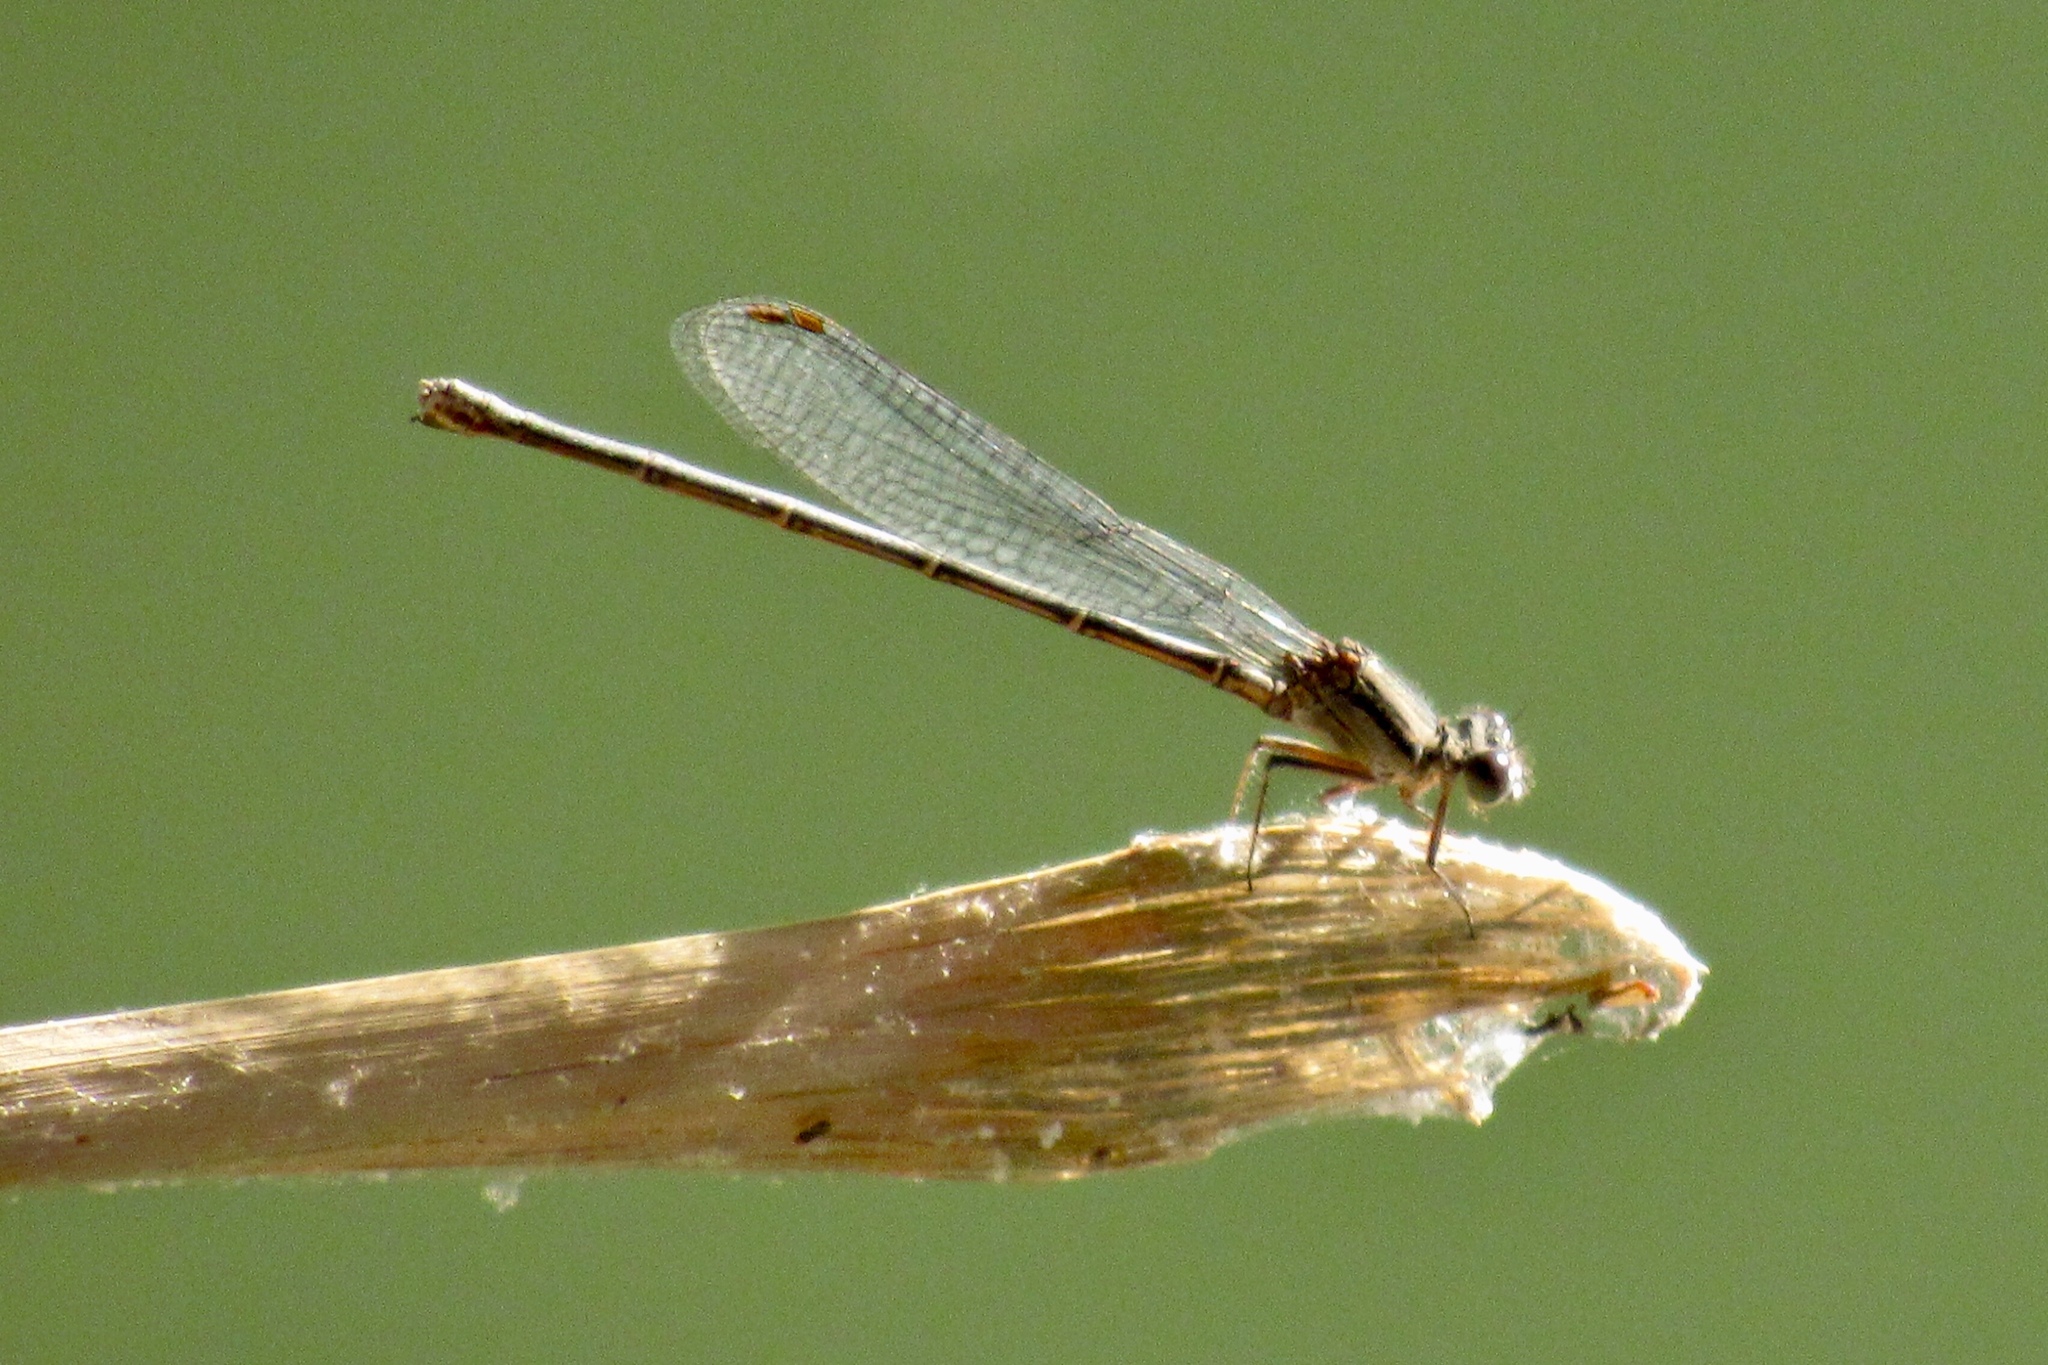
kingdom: Animalia
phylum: Arthropoda
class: Insecta
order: Odonata
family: Coenagrionidae
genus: Argia
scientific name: Argia translata
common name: Dusky dancer
